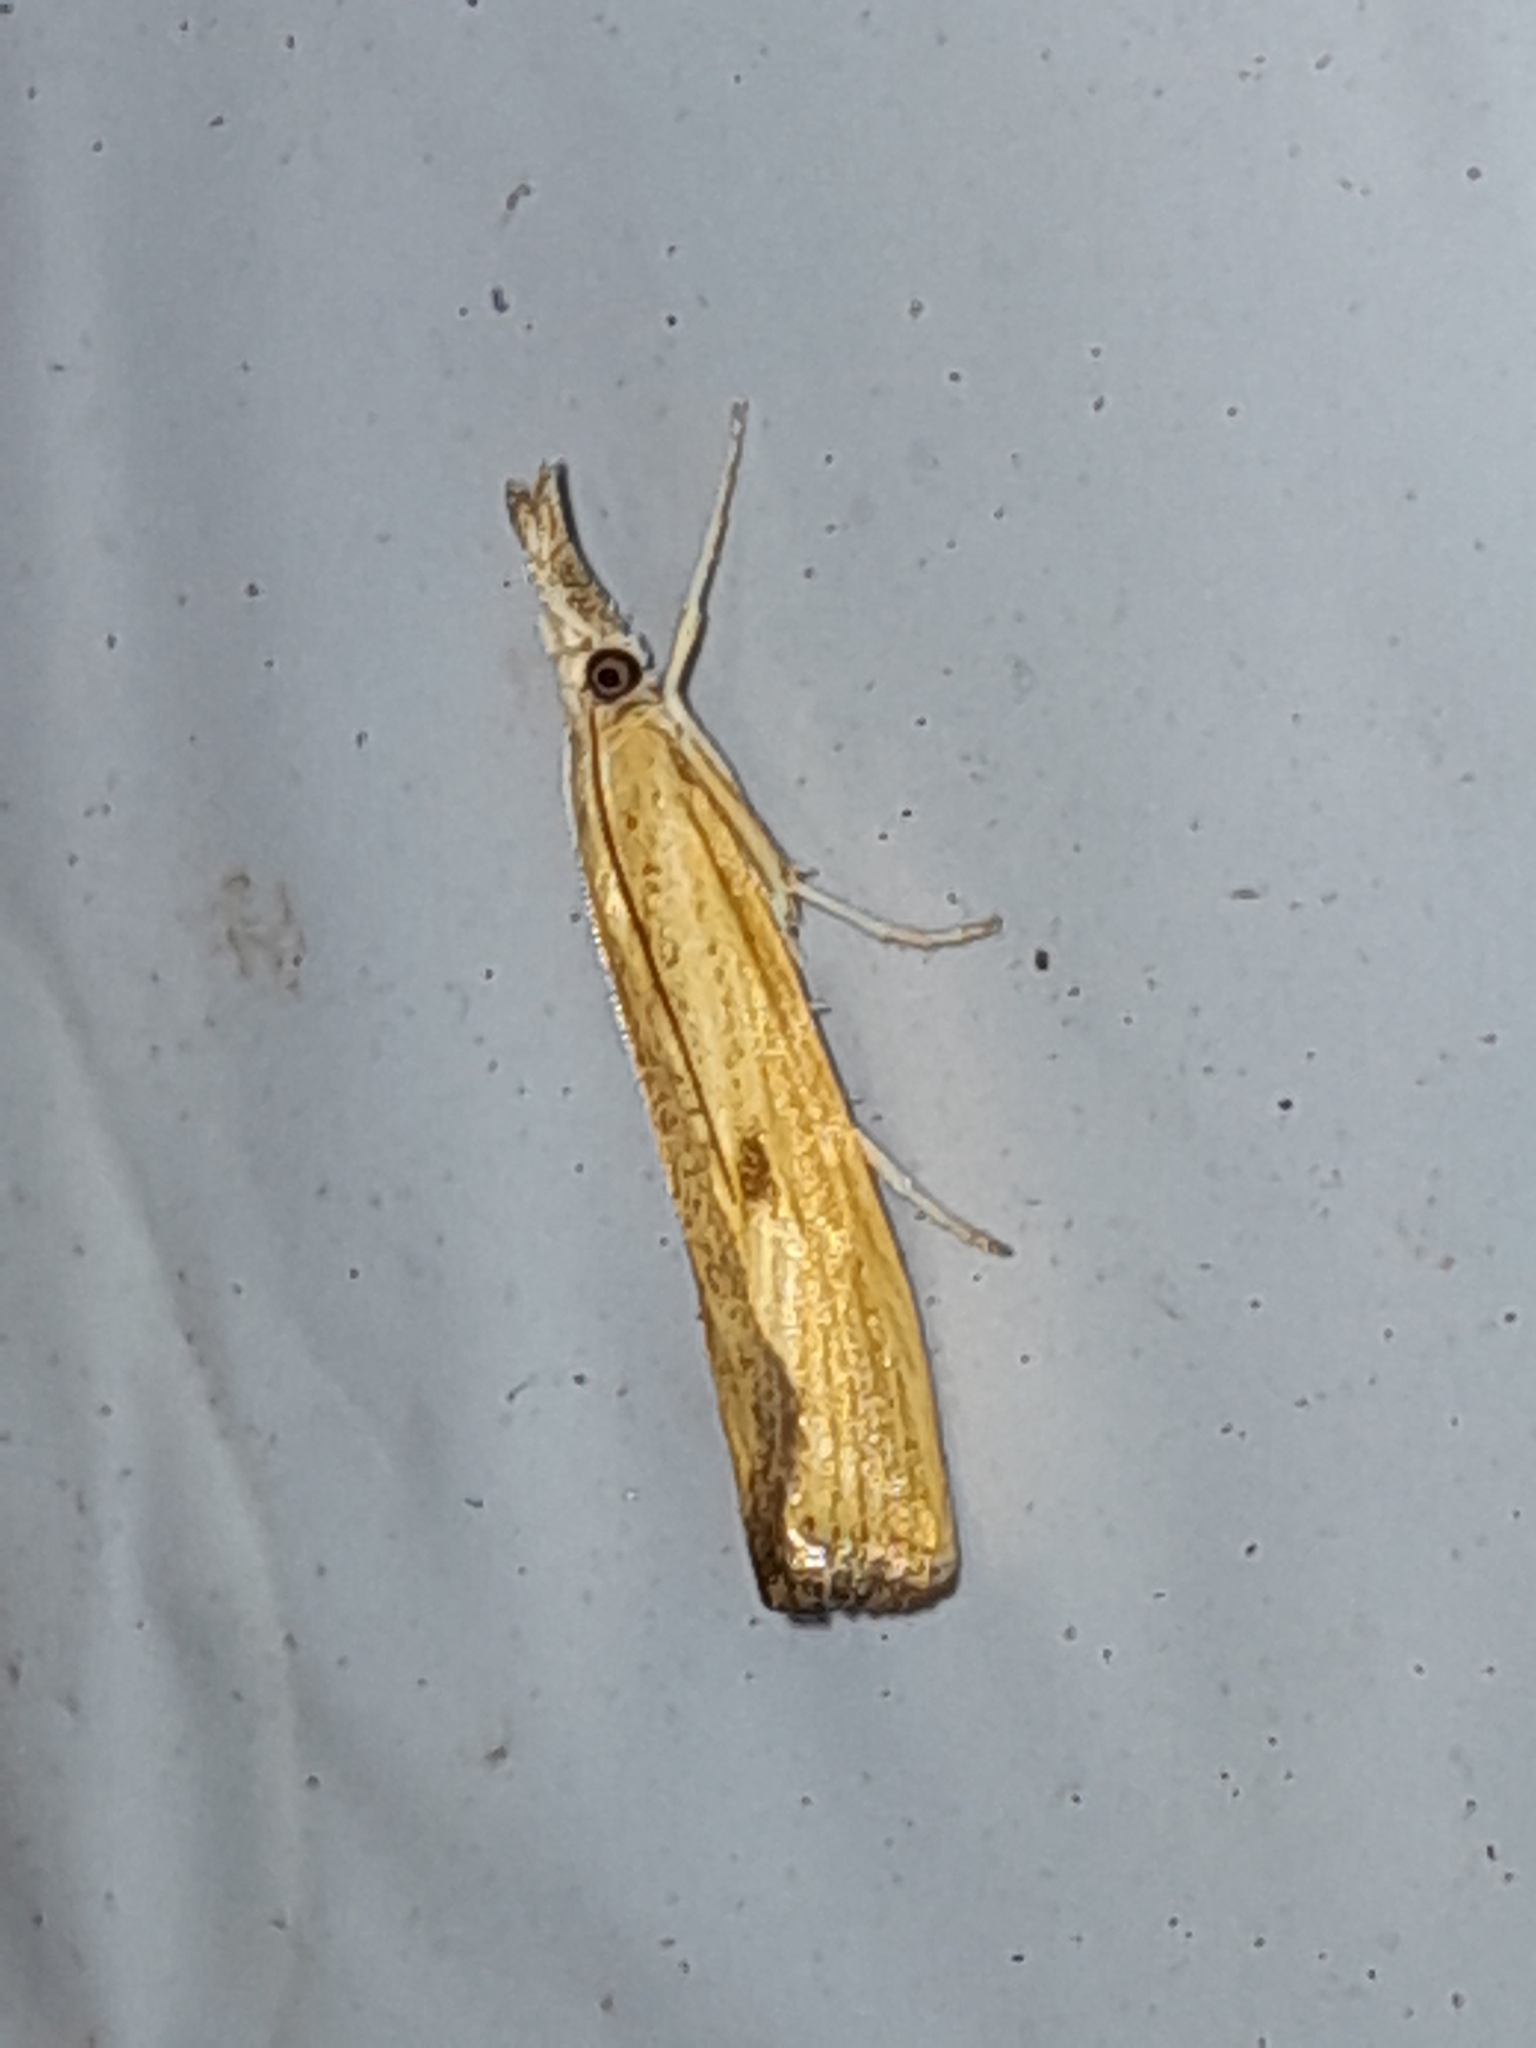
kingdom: Animalia
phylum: Arthropoda
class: Insecta
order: Lepidoptera
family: Crambidae
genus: Agriphila
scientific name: Agriphila inquinatella
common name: Barred grass-veneer
